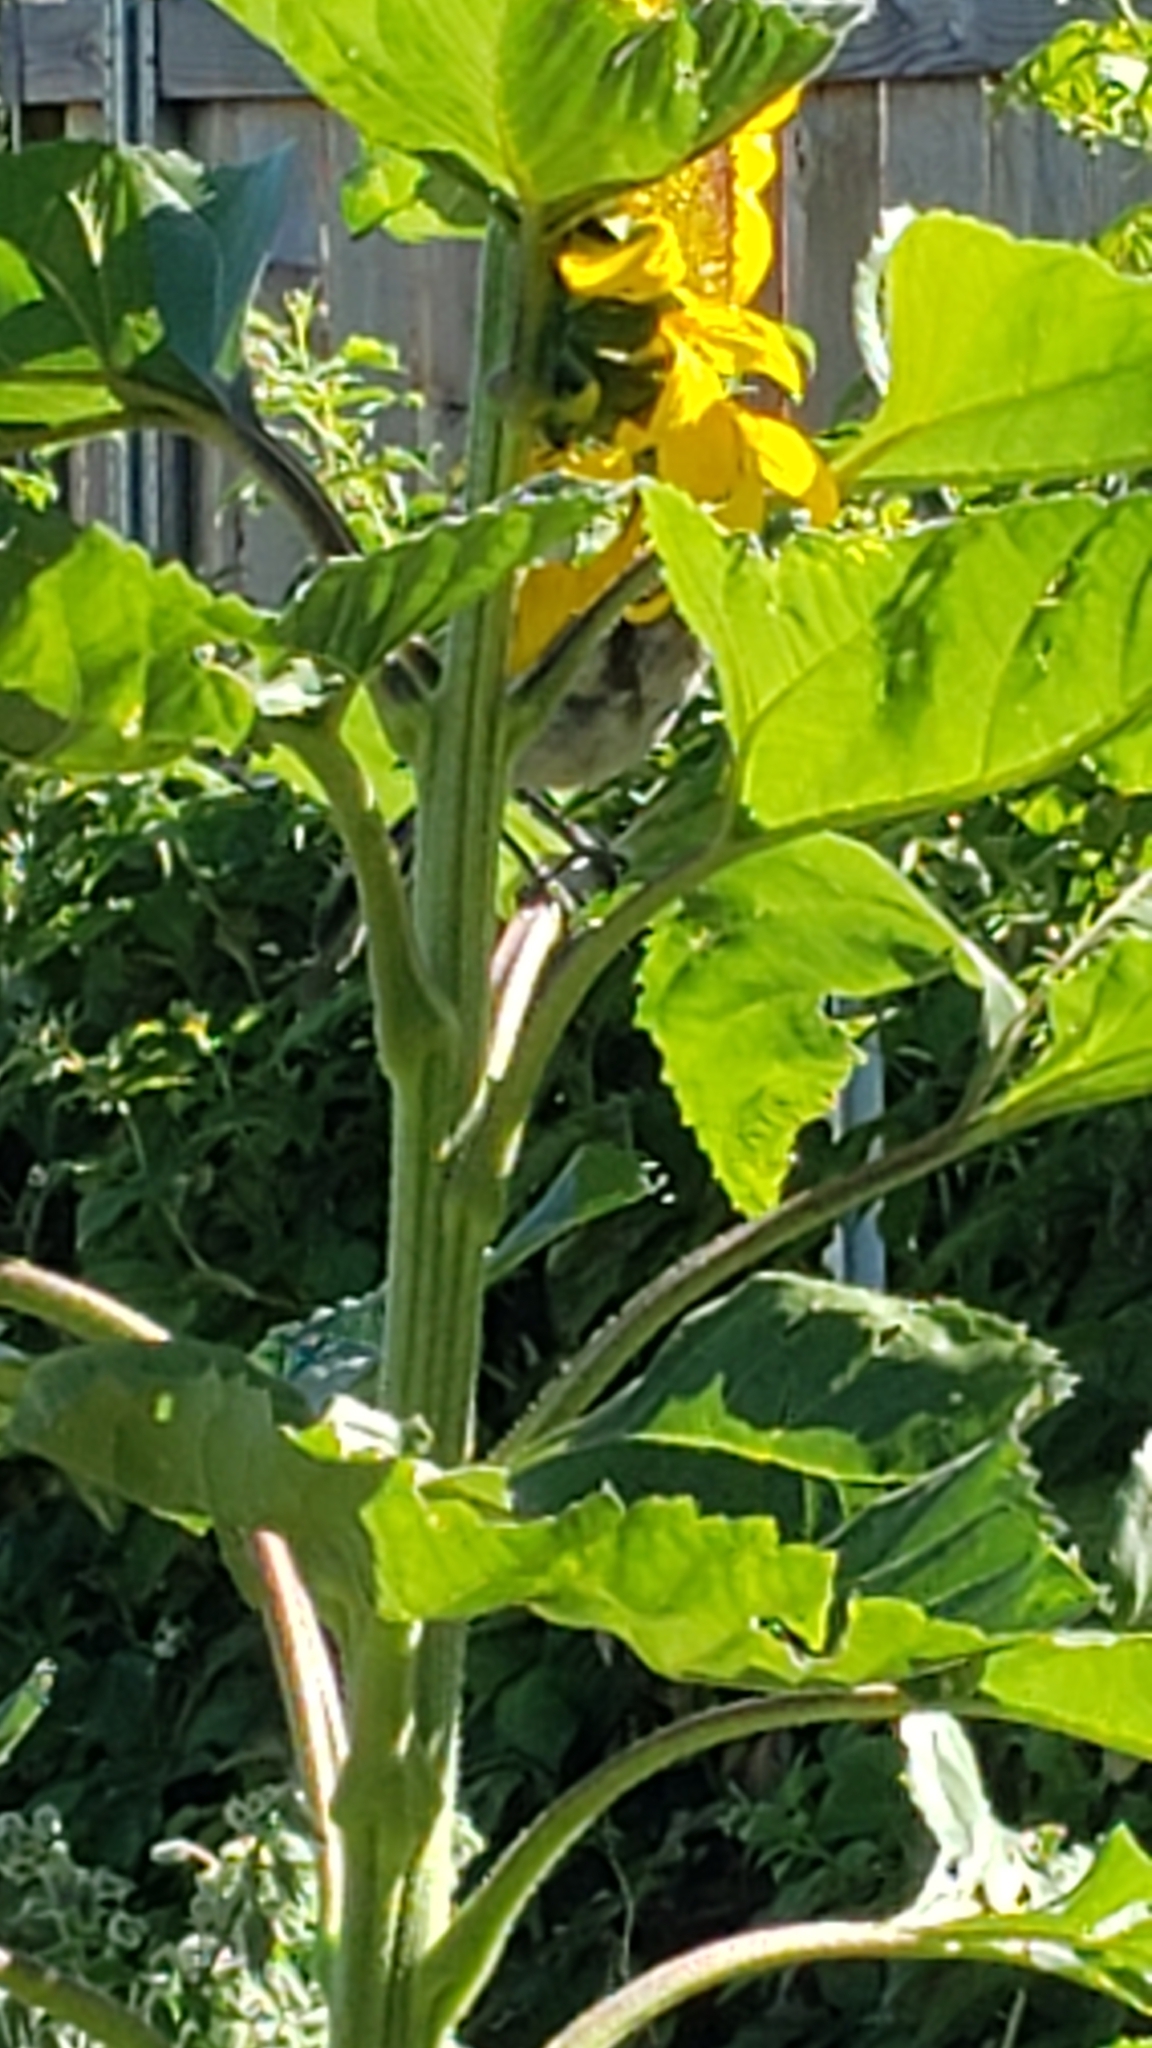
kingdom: Animalia
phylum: Chordata
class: Aves
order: Passeriformes
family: Corvidae
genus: Aphelocoma
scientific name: Aphelocoma californica
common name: California scrub-jay
